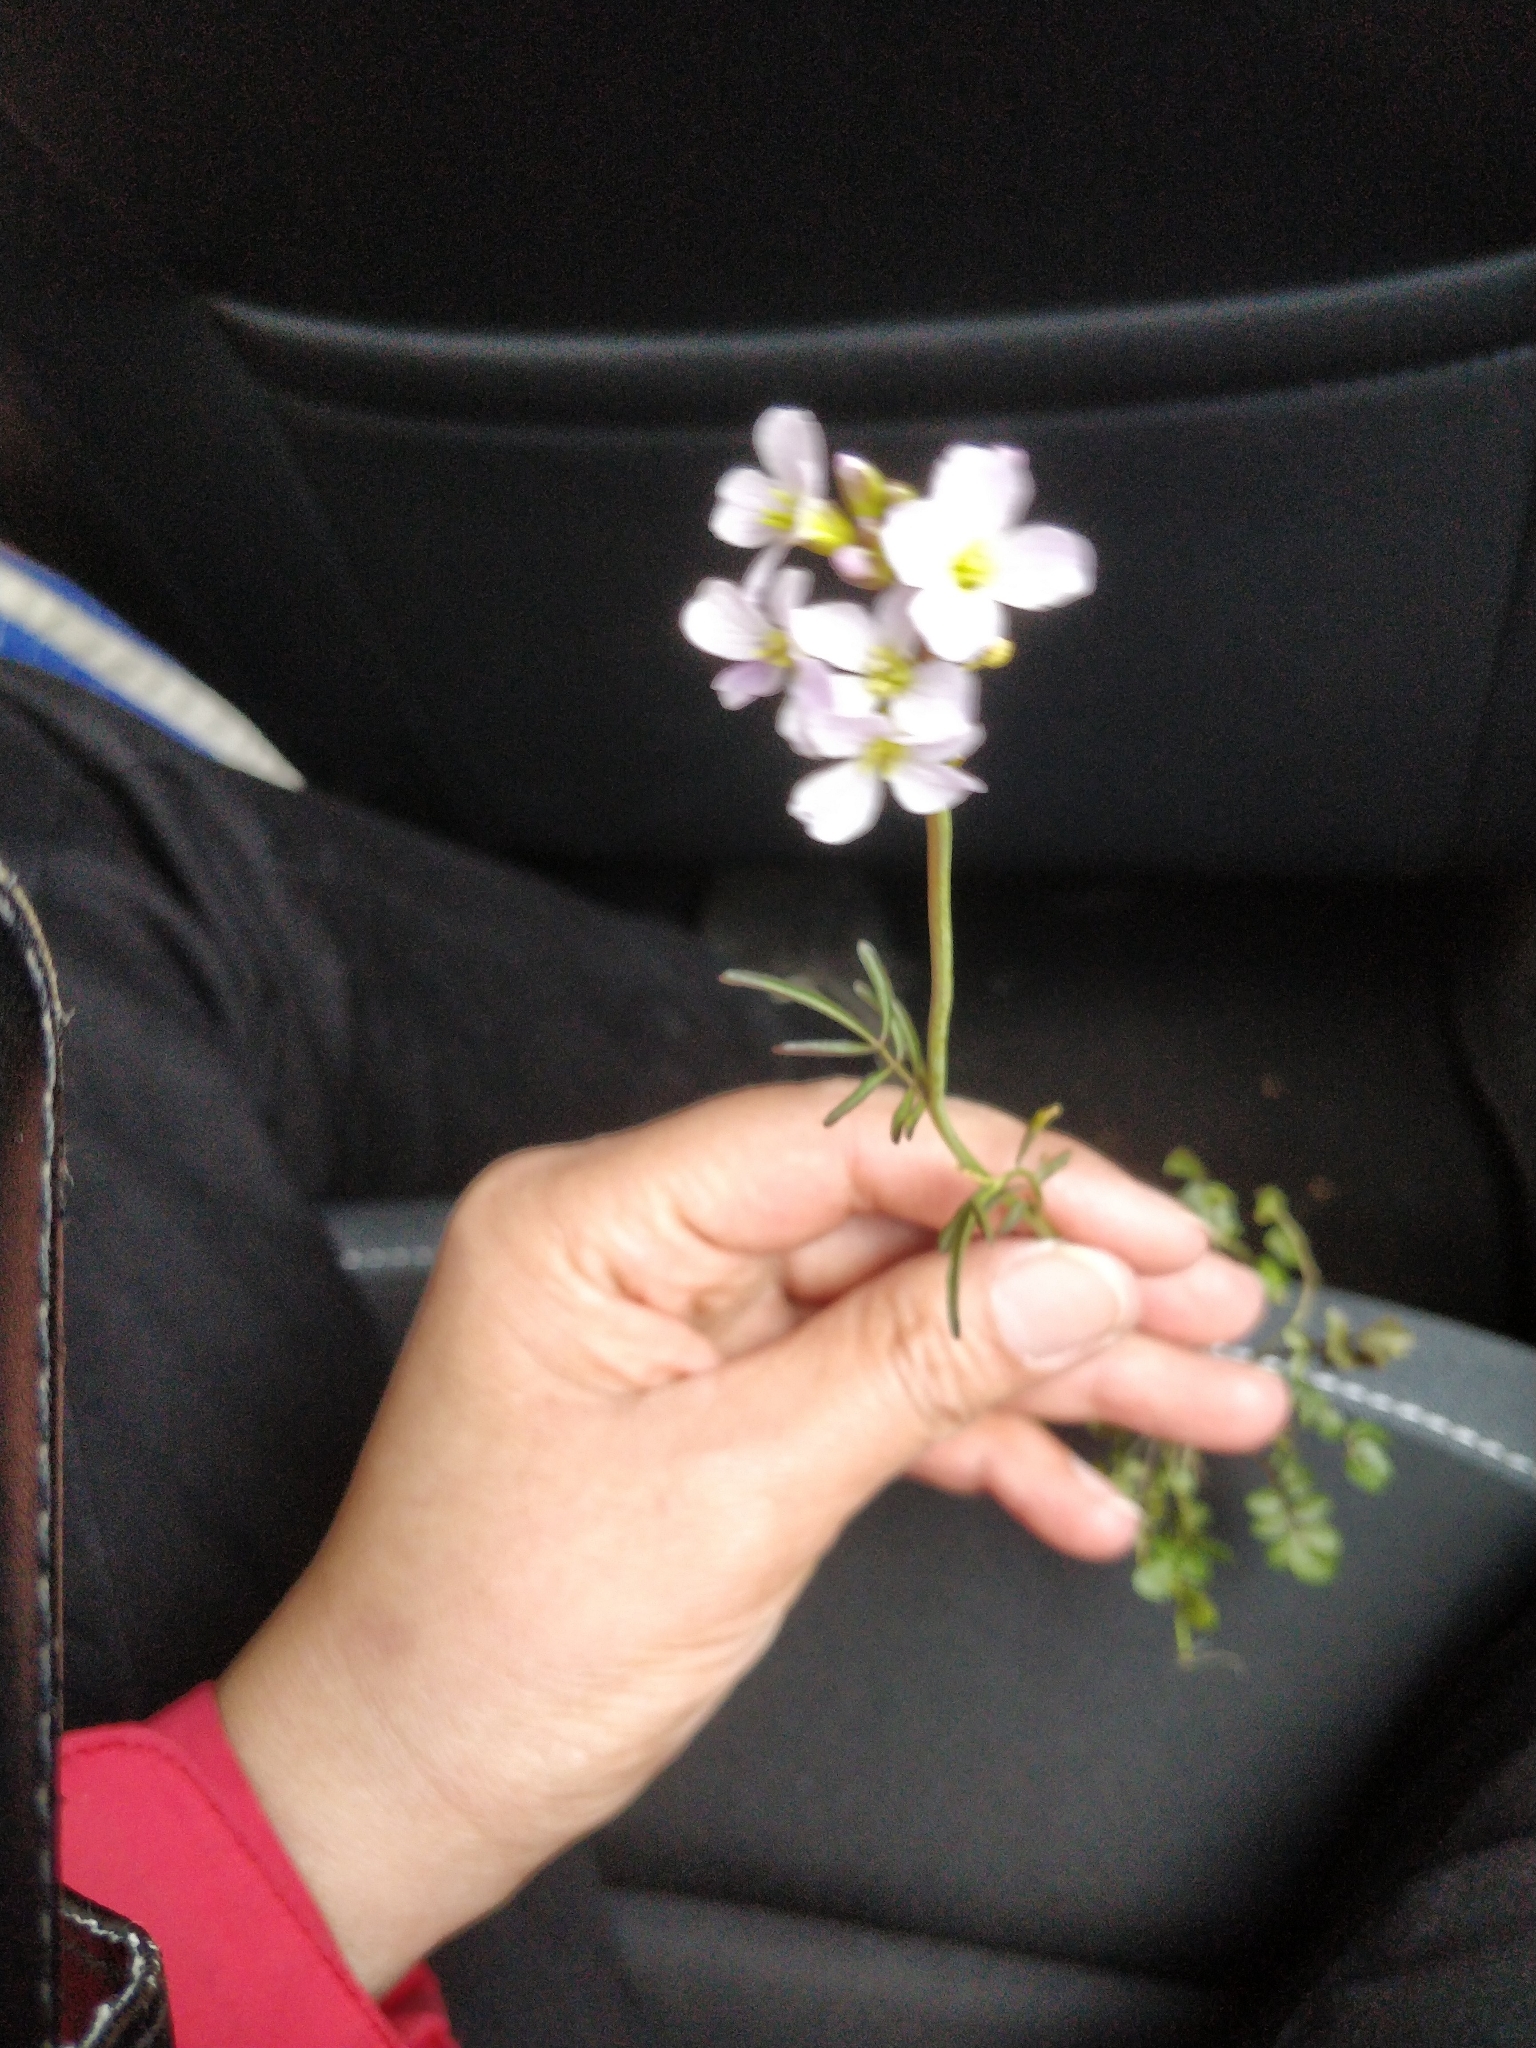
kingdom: Plantae
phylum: Tracheophyta
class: Magnoliopsida
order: Brassicales
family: Brassicaceae
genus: Cardamine
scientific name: Cardamine pratensis
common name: Cuckoo flower
